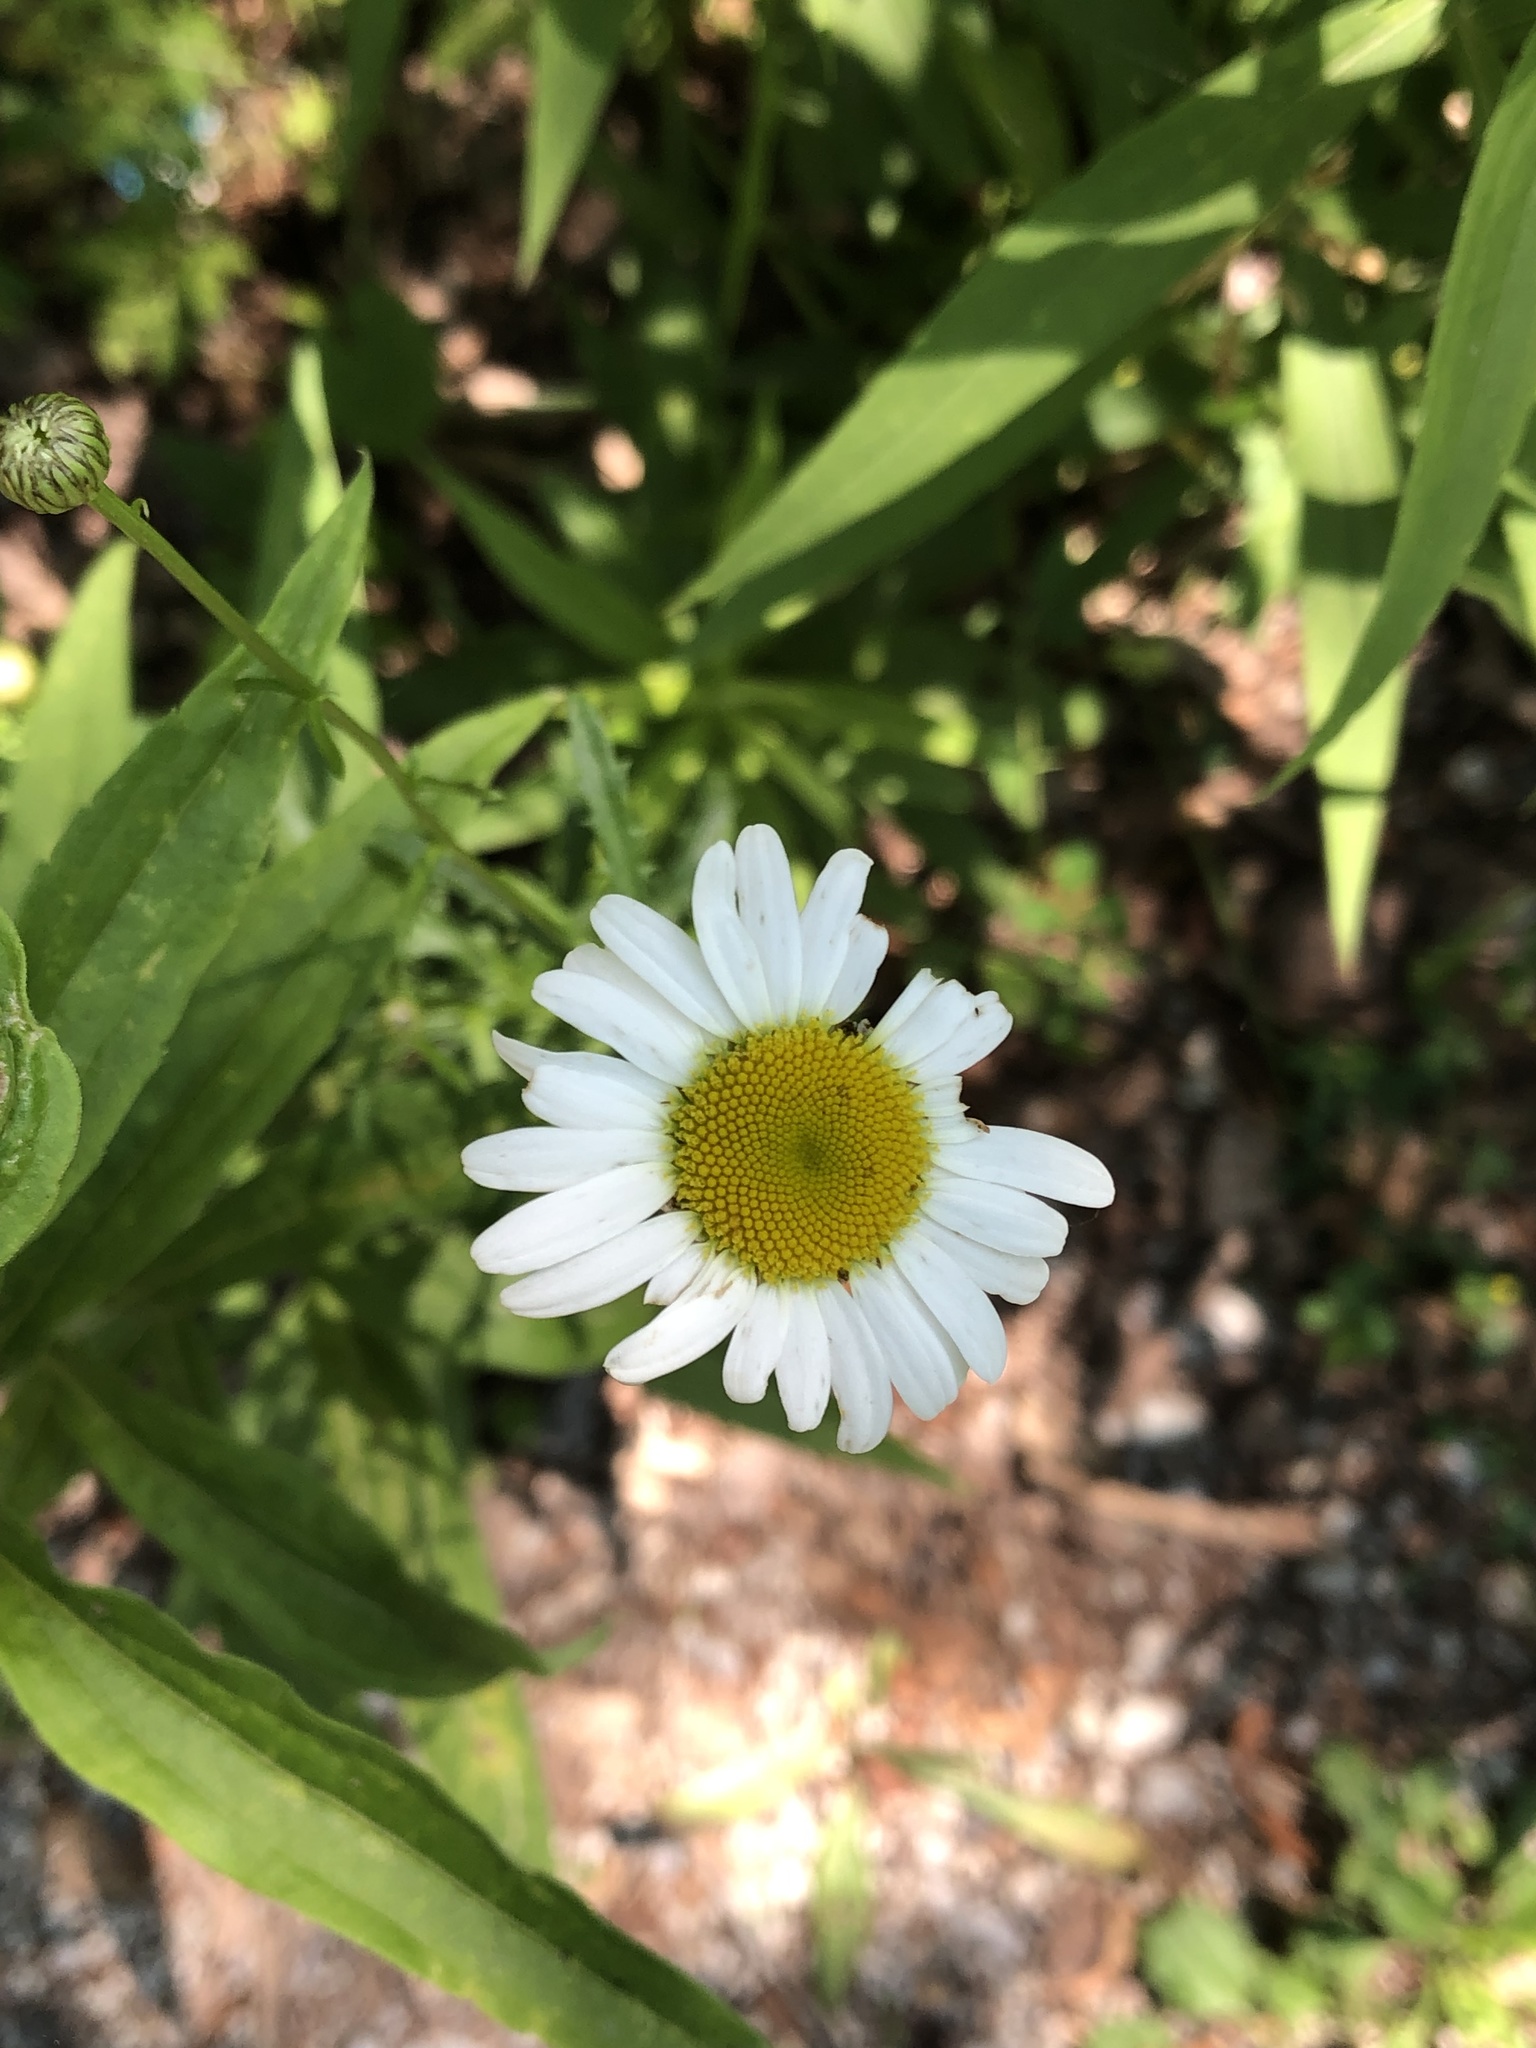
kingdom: Plantae
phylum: Tracheophyta
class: Magnoliopsida
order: Asterales
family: Asteraceae
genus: Leucanthemum
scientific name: Leucanthemum vulgare
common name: Oxeye daisy
